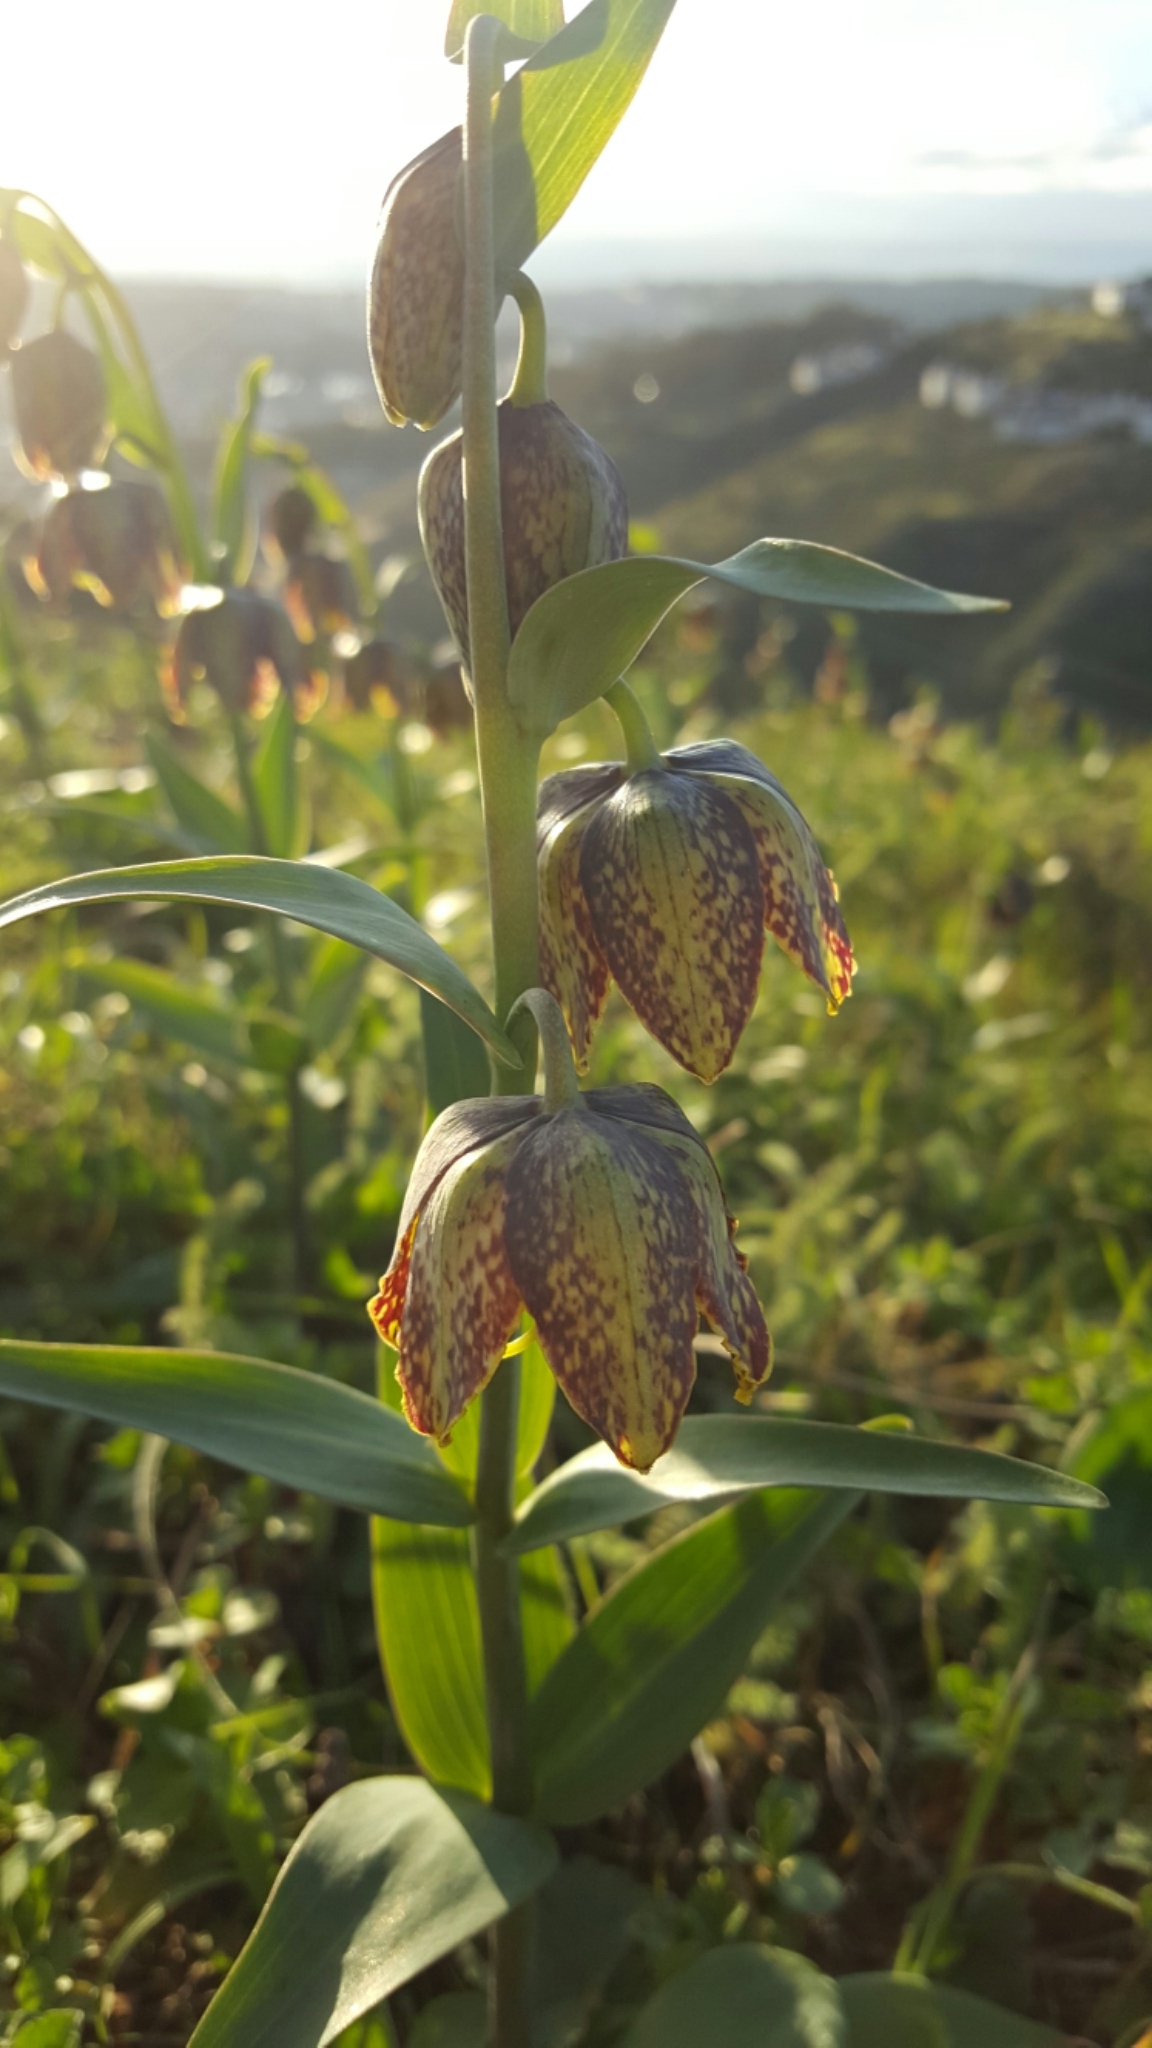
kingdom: Plantae
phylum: Tracheophyta
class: Liliopsida
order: Liliales
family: Liliaceae
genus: Fritillaria
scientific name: Fritillaria affinis
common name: Ojai fritillary
